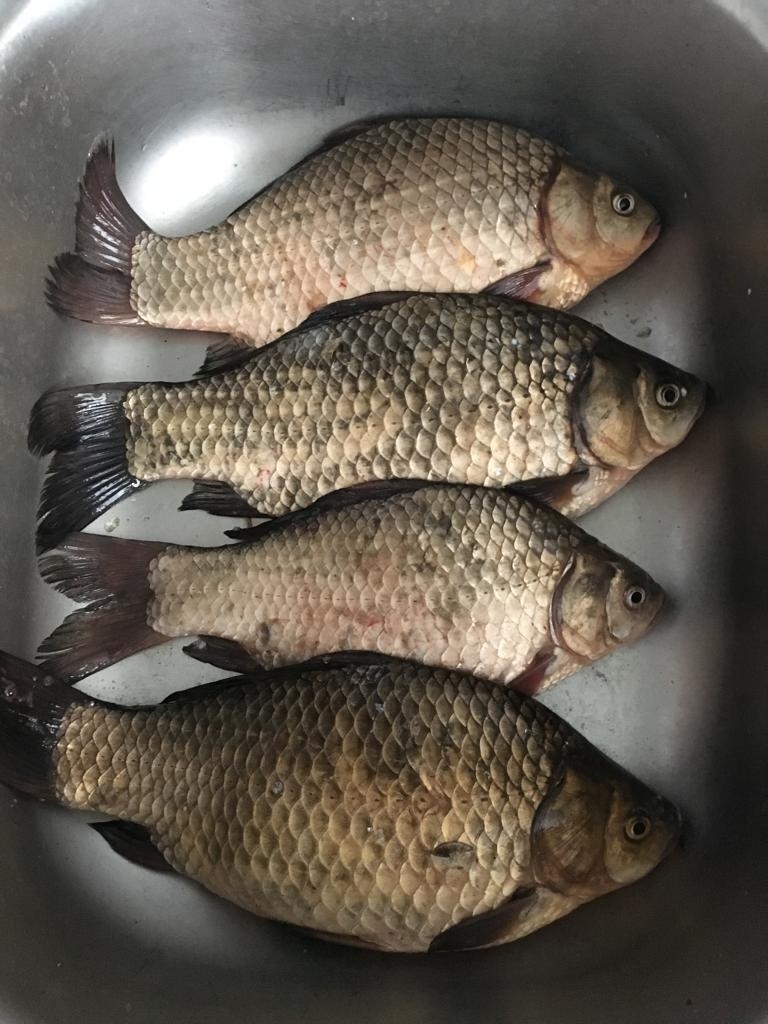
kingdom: Animalia
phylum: Chordata
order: Cypriniformes
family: Cyprinidae
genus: Carassius
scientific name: Carassius gibelio
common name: Prussian carp
